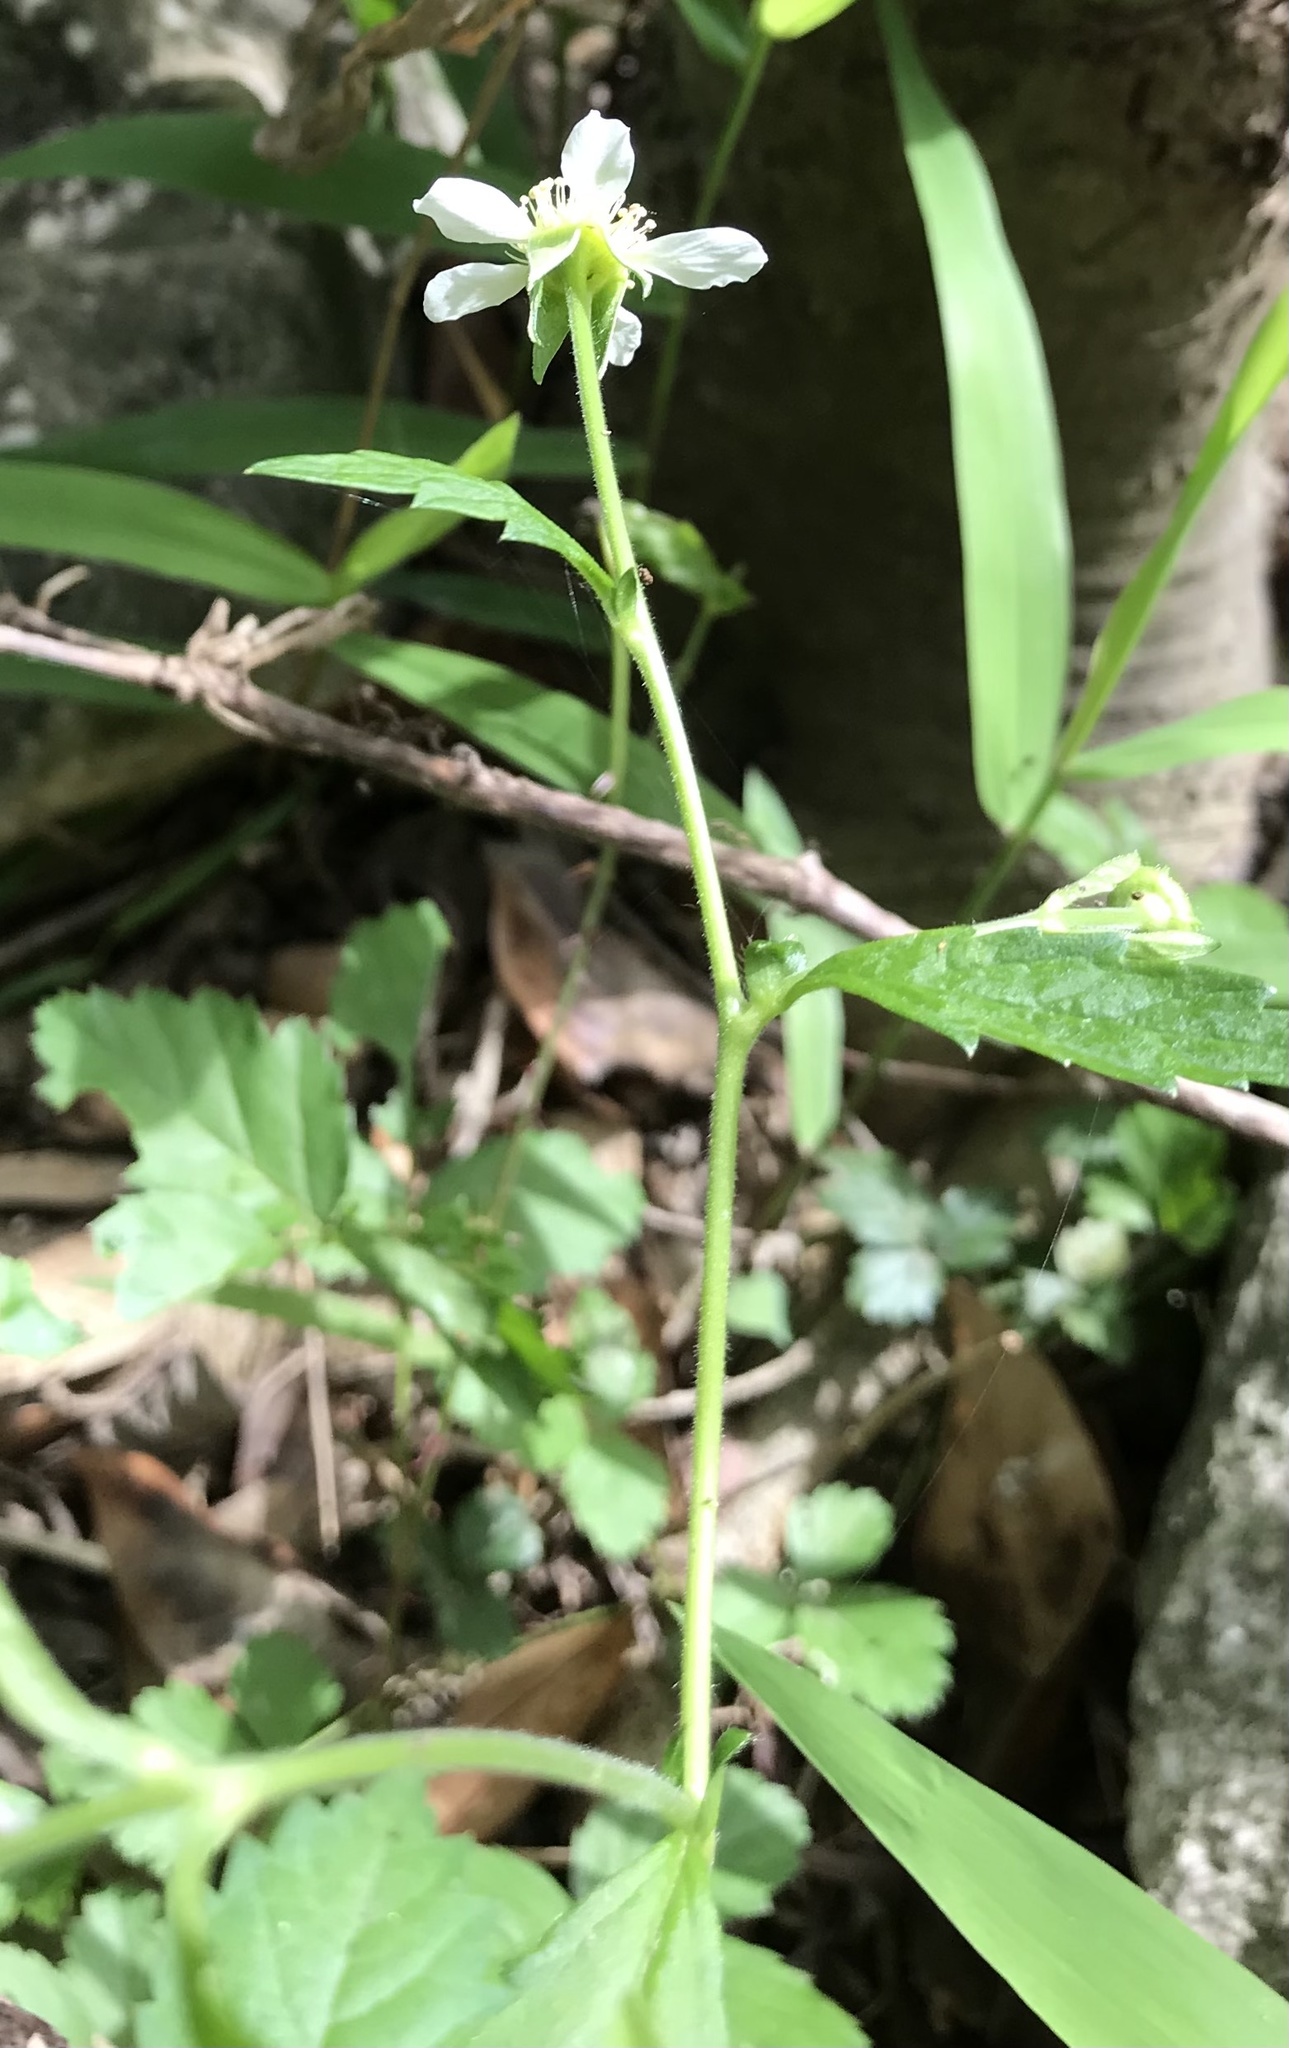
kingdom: Plantae
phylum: Tracheophyta
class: Magnoliopsida
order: Rosales
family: Rosaceae
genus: Geum
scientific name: Geum canadense
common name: White avens
